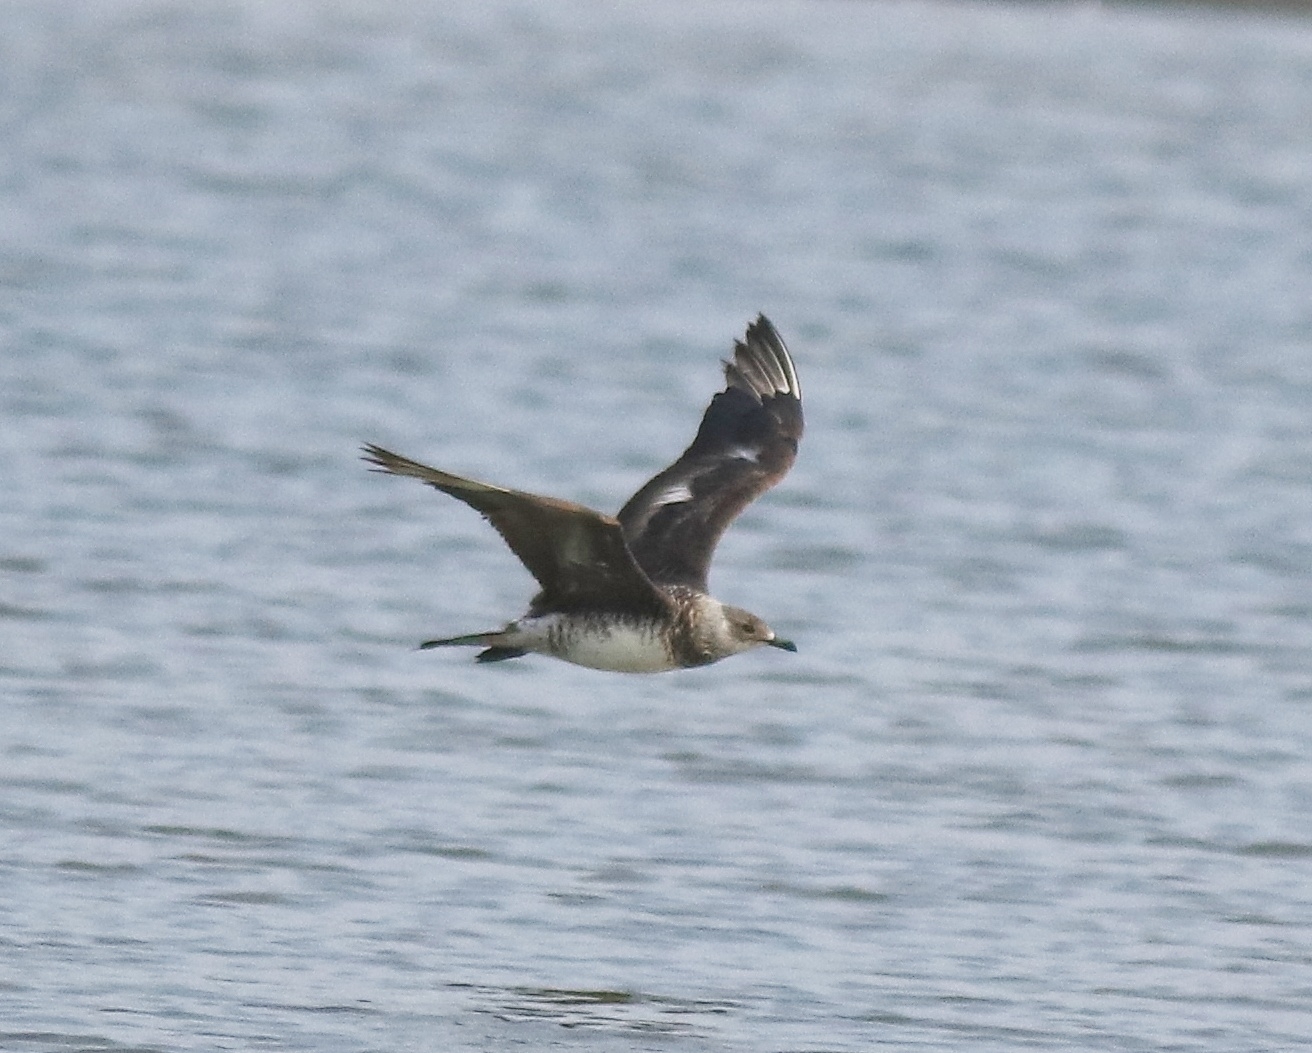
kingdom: Animalia
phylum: Chordata
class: Aves
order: Charadriiformes
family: Stercorariidae
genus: Stercorarius
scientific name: Stercorarius parasiticus
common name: Parasitic jaeger
